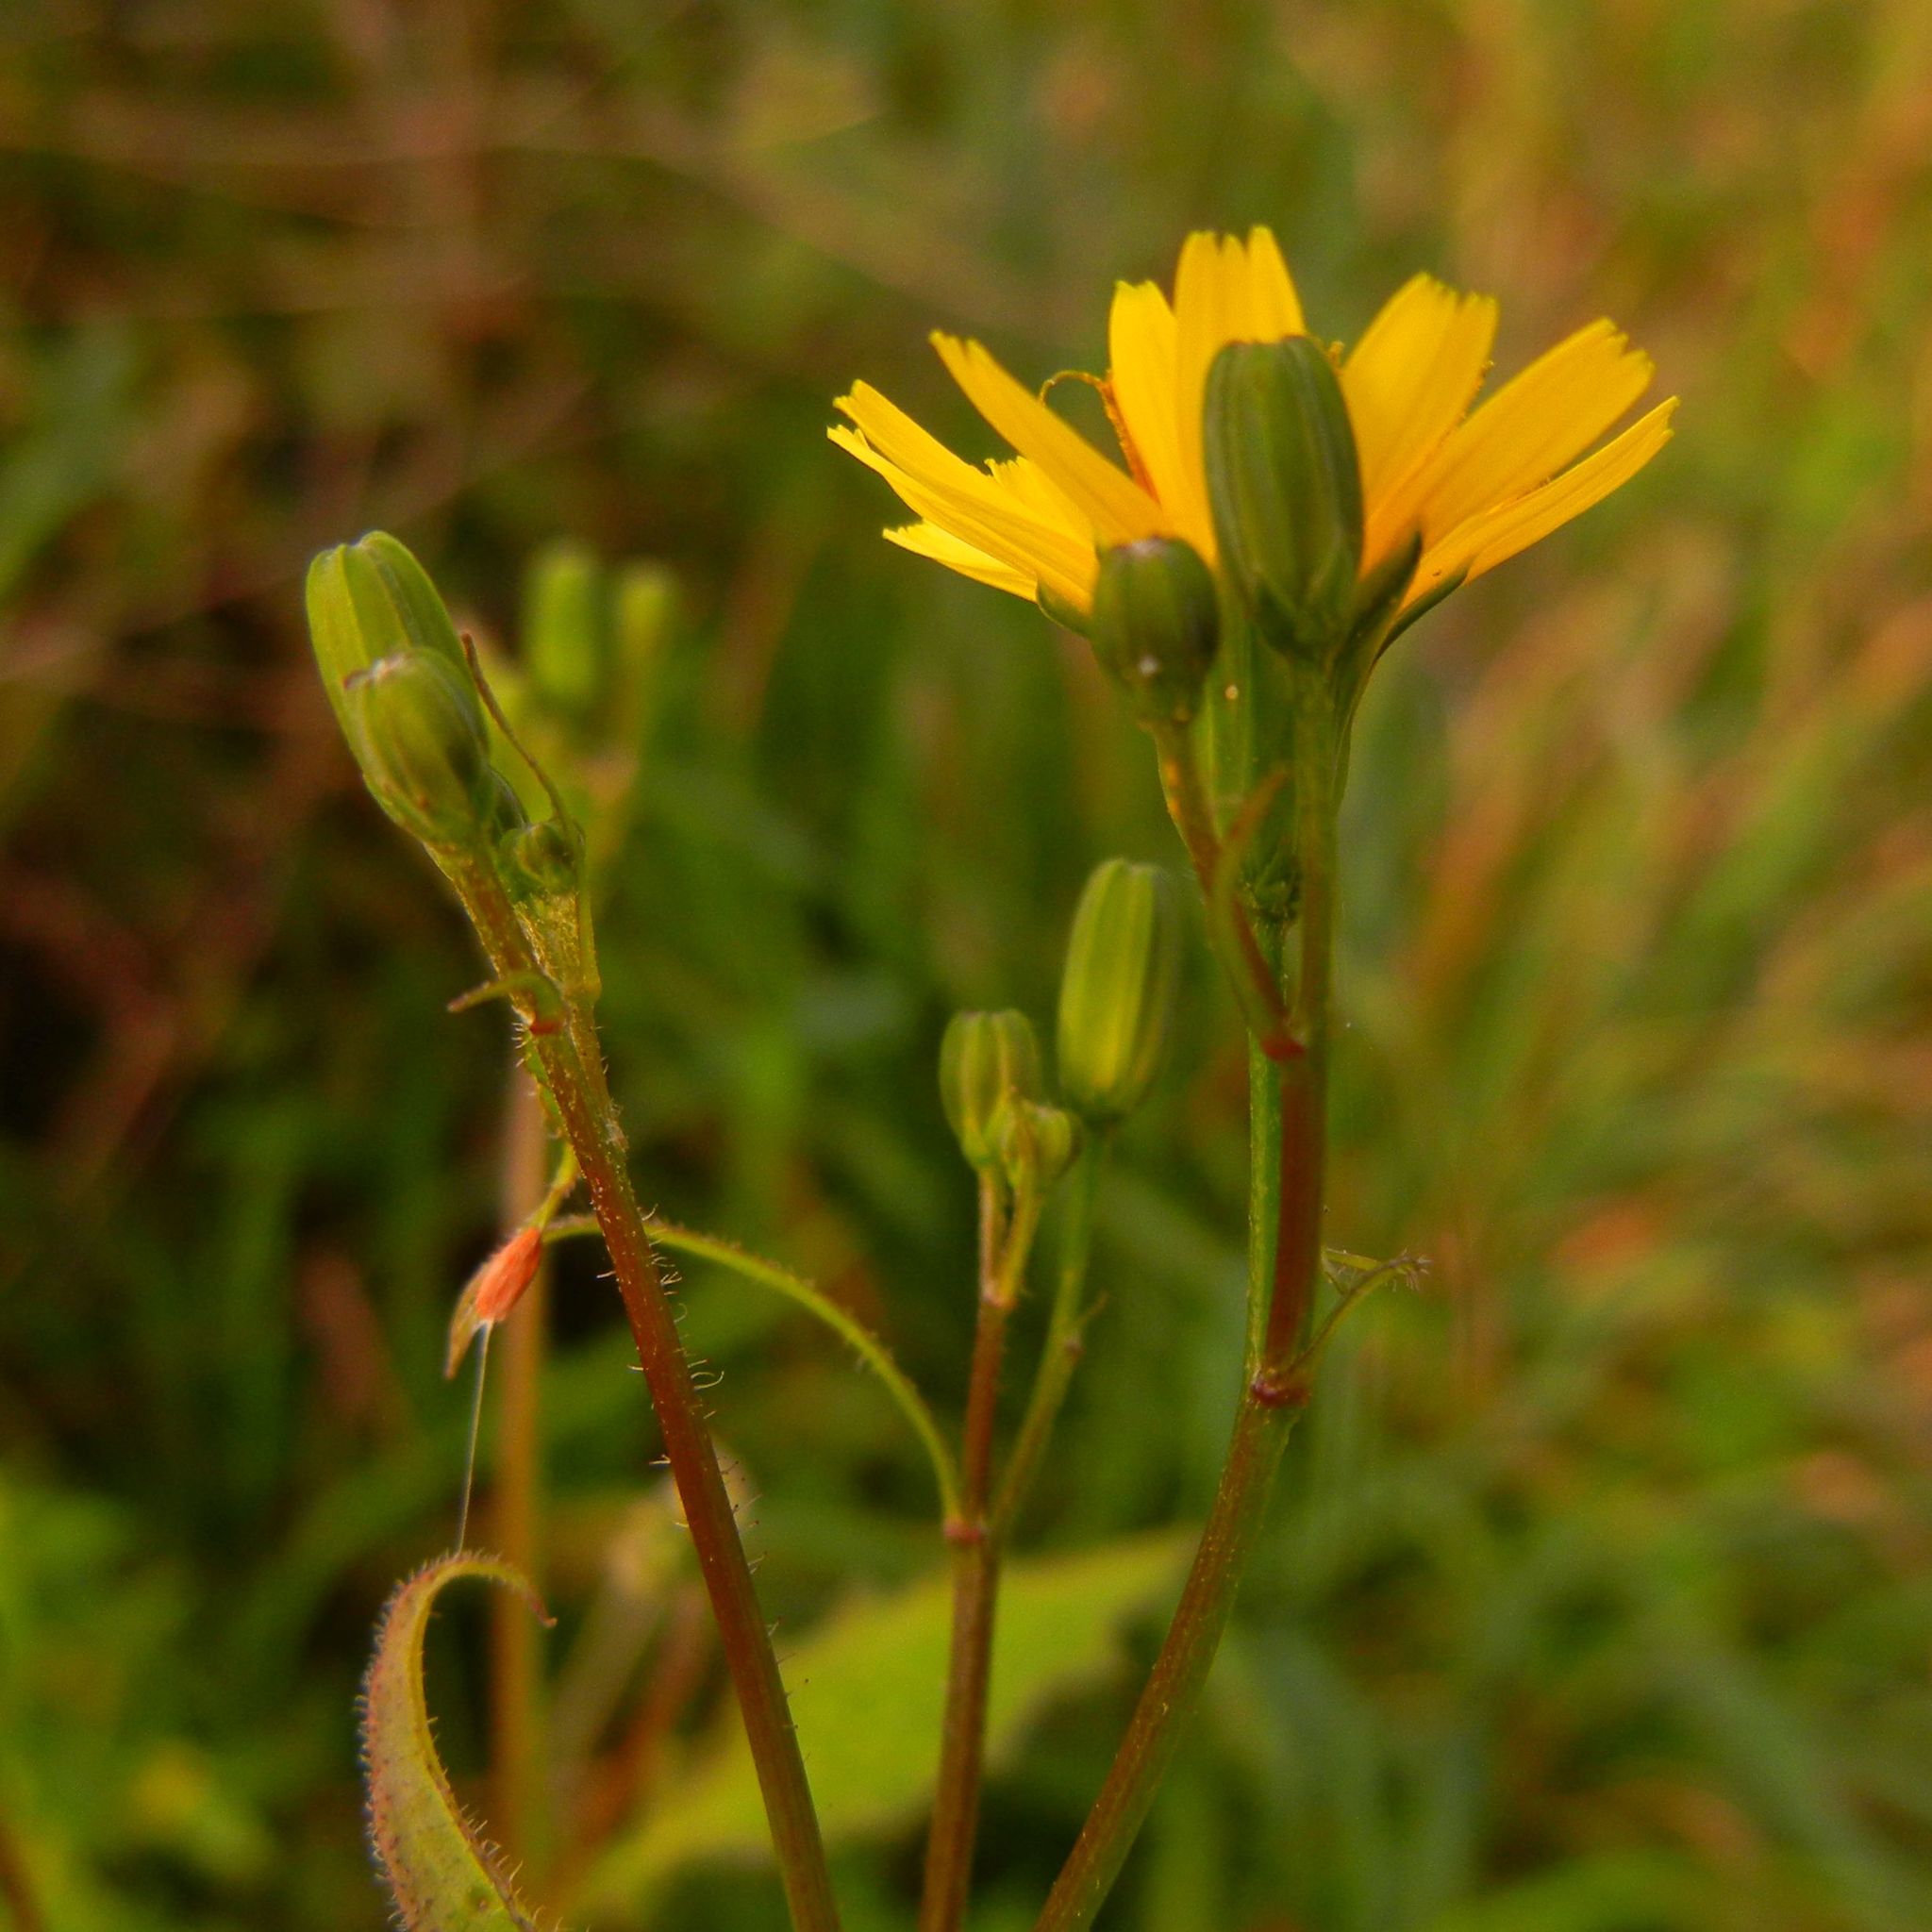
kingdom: Plantae
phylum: Tracheophyta
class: Magnoliopsida
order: Asterales
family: Asteraceae
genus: Lapsana
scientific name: Lapsana communis
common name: Nipplewort
